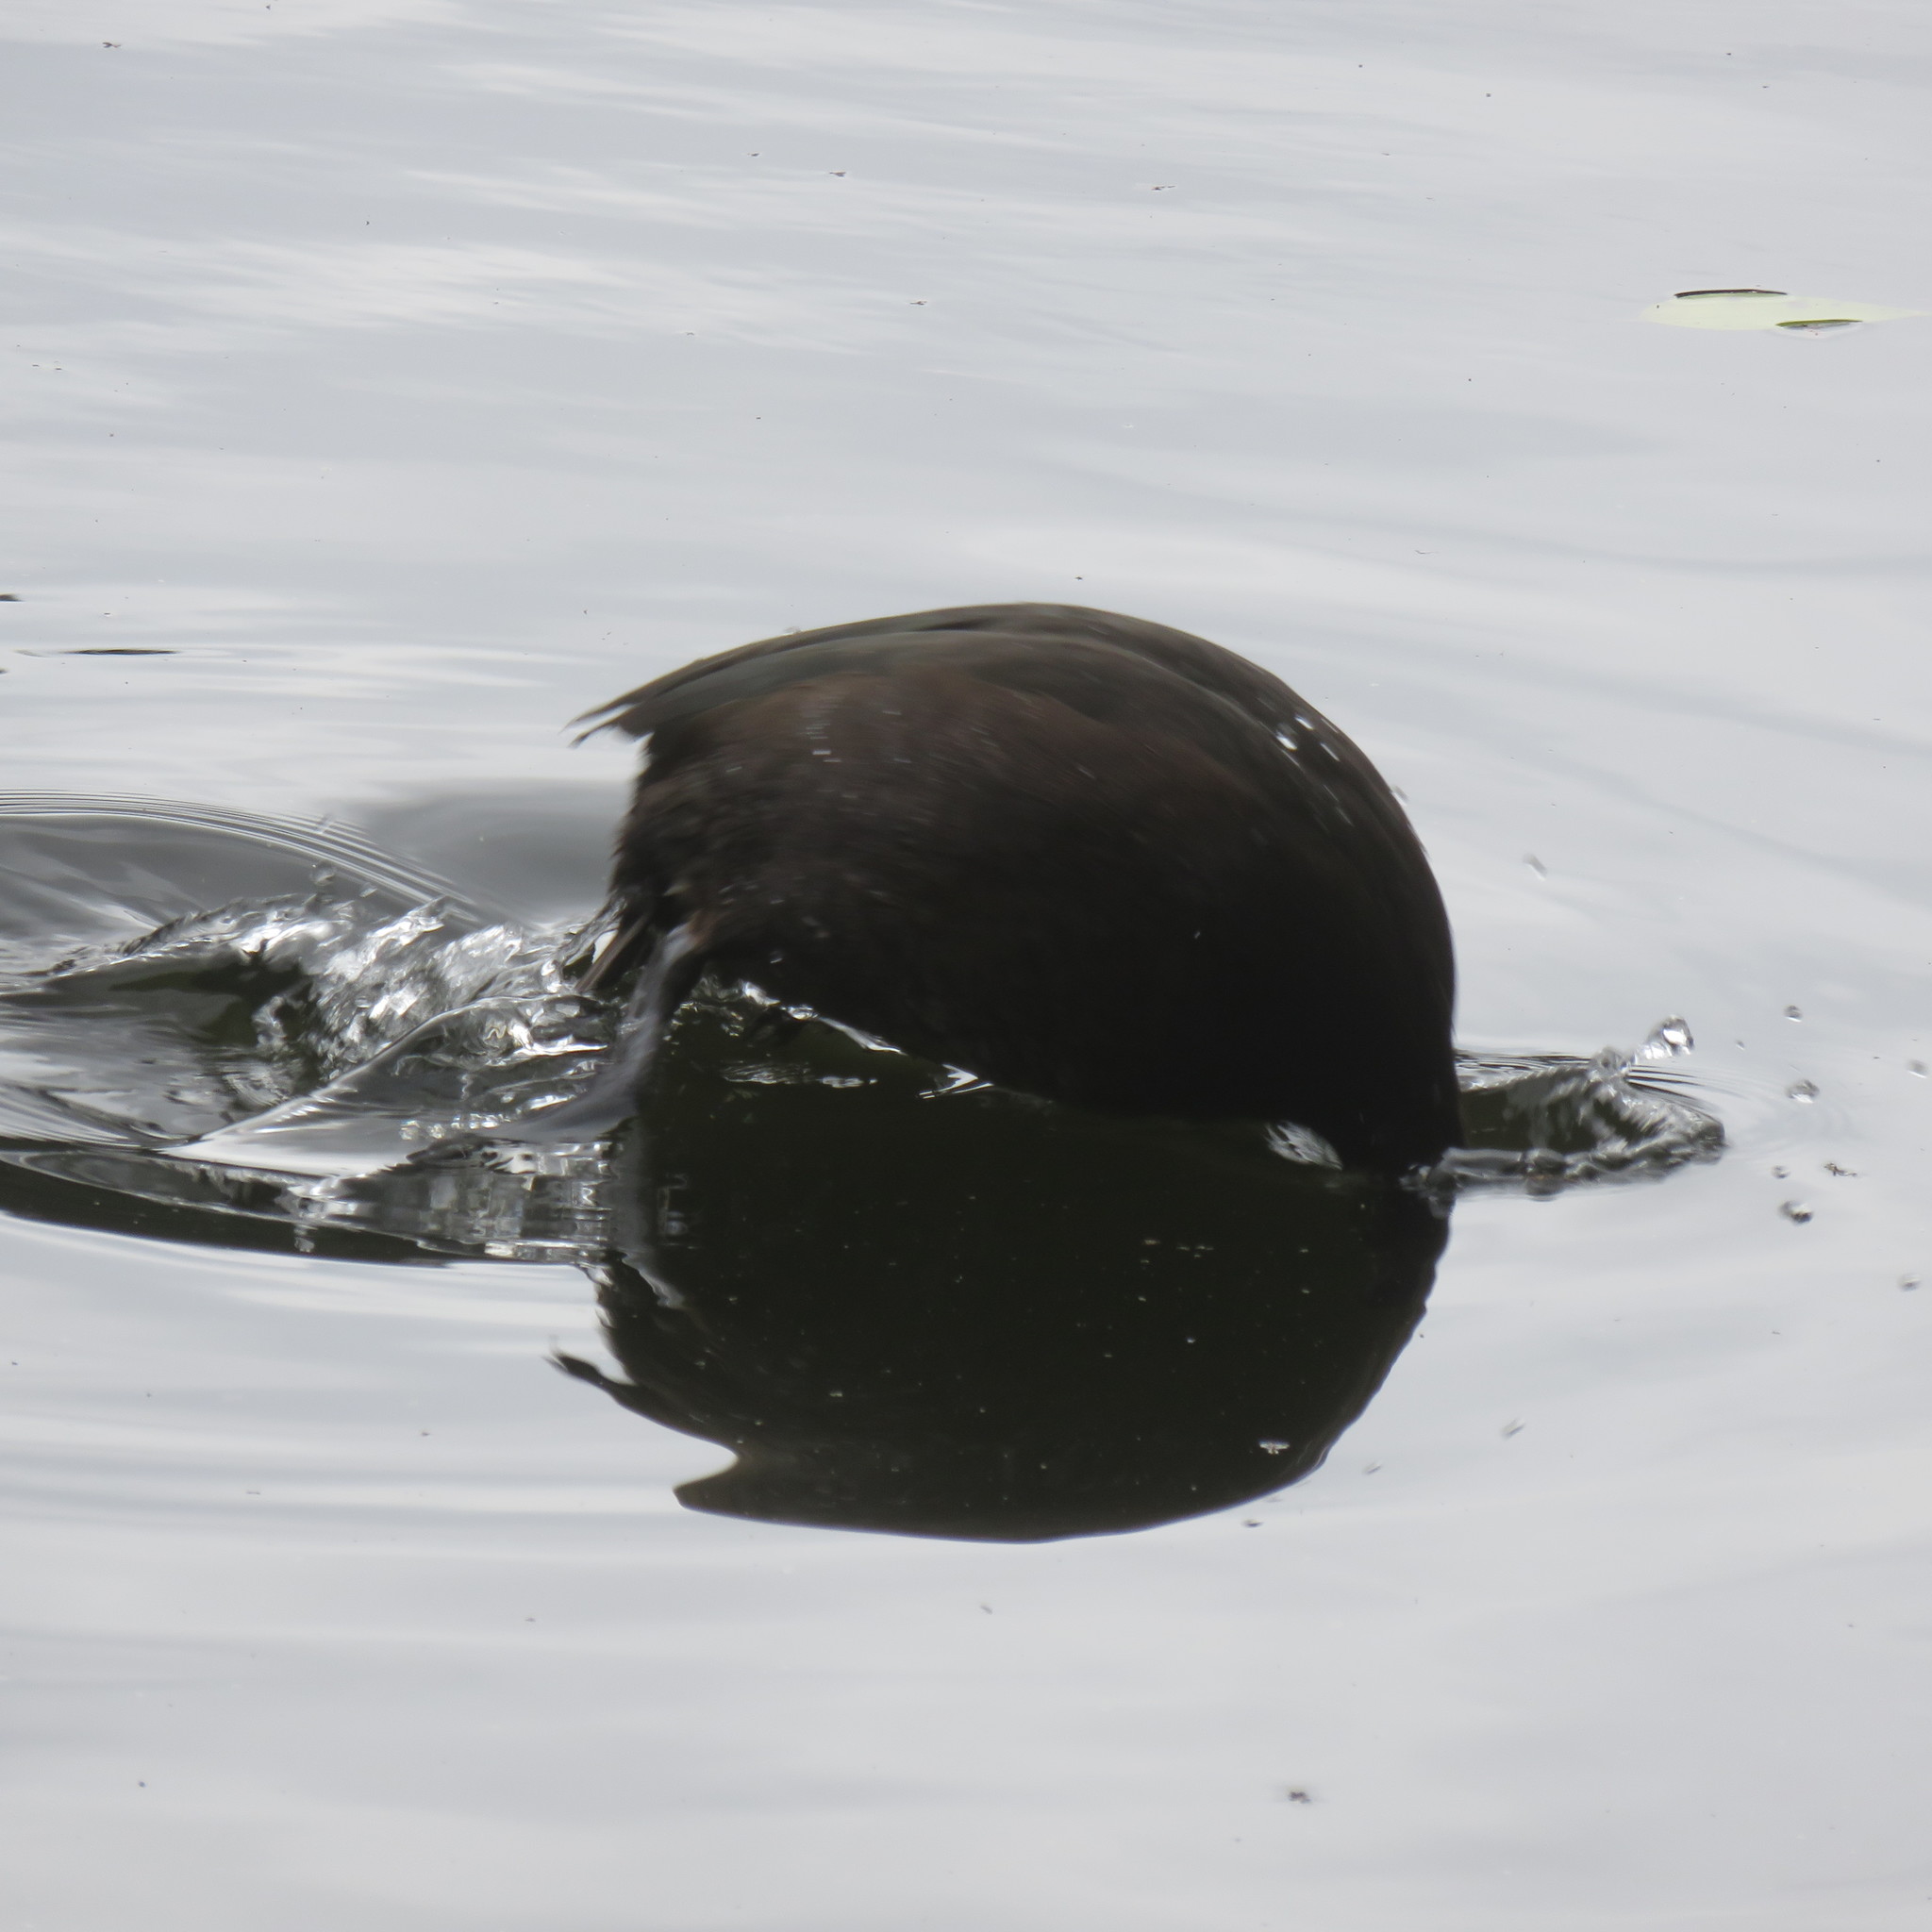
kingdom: Animalia
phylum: Chordata
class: Aves
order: Anseriformes
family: Anatidae
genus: Aythya
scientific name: Aythya novaeseelandiae
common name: New zealand scaup
